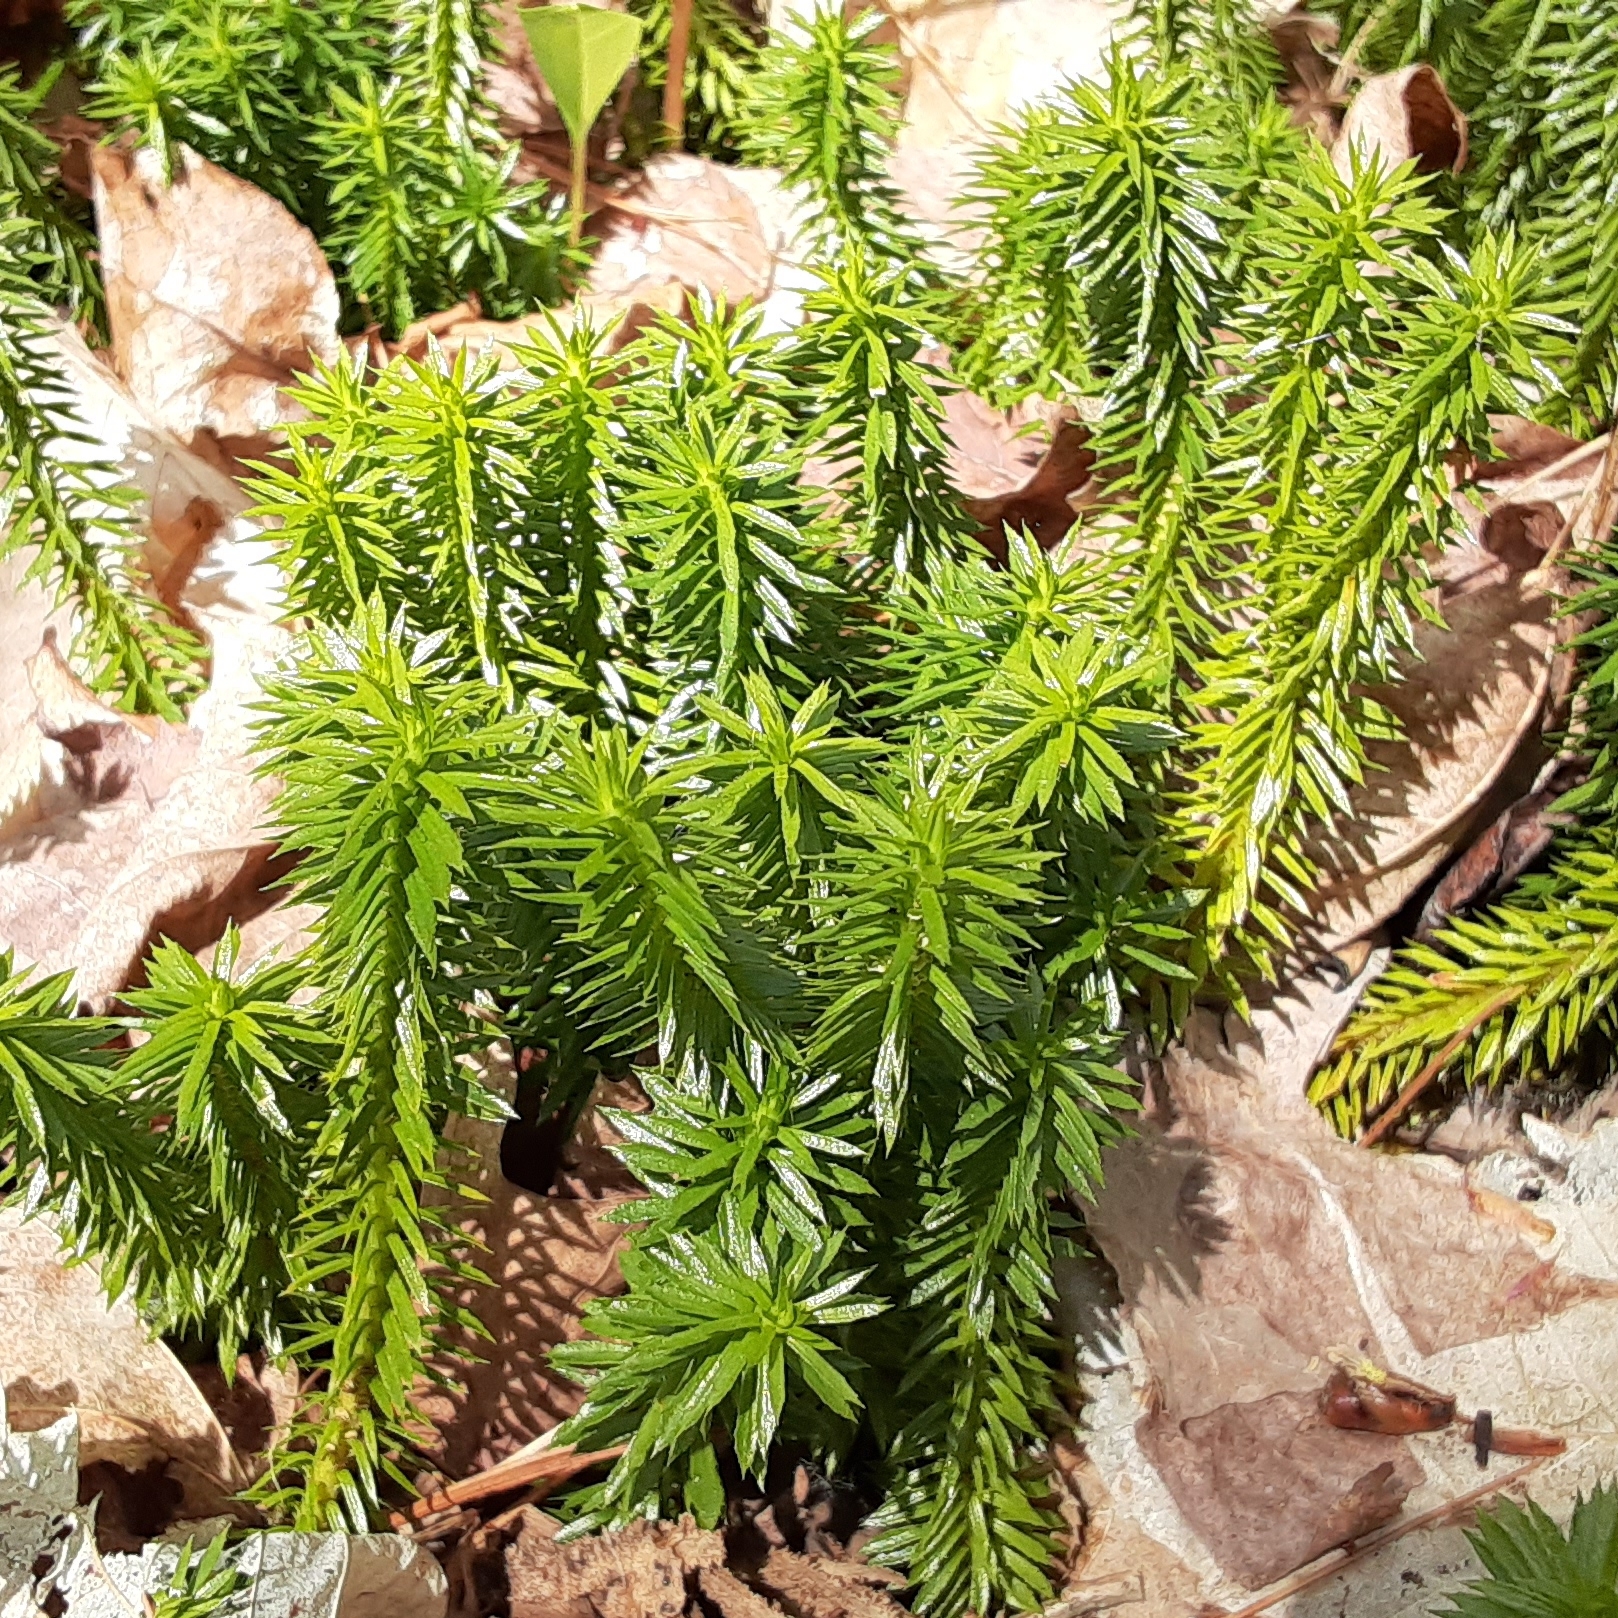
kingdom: Plantae
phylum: Tracheophyta
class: Lycopodiopsida
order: Lycopodiales
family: Lycopodiaceae
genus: Huperzia
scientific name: Huperzia lucidula
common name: Shining clubmoss
